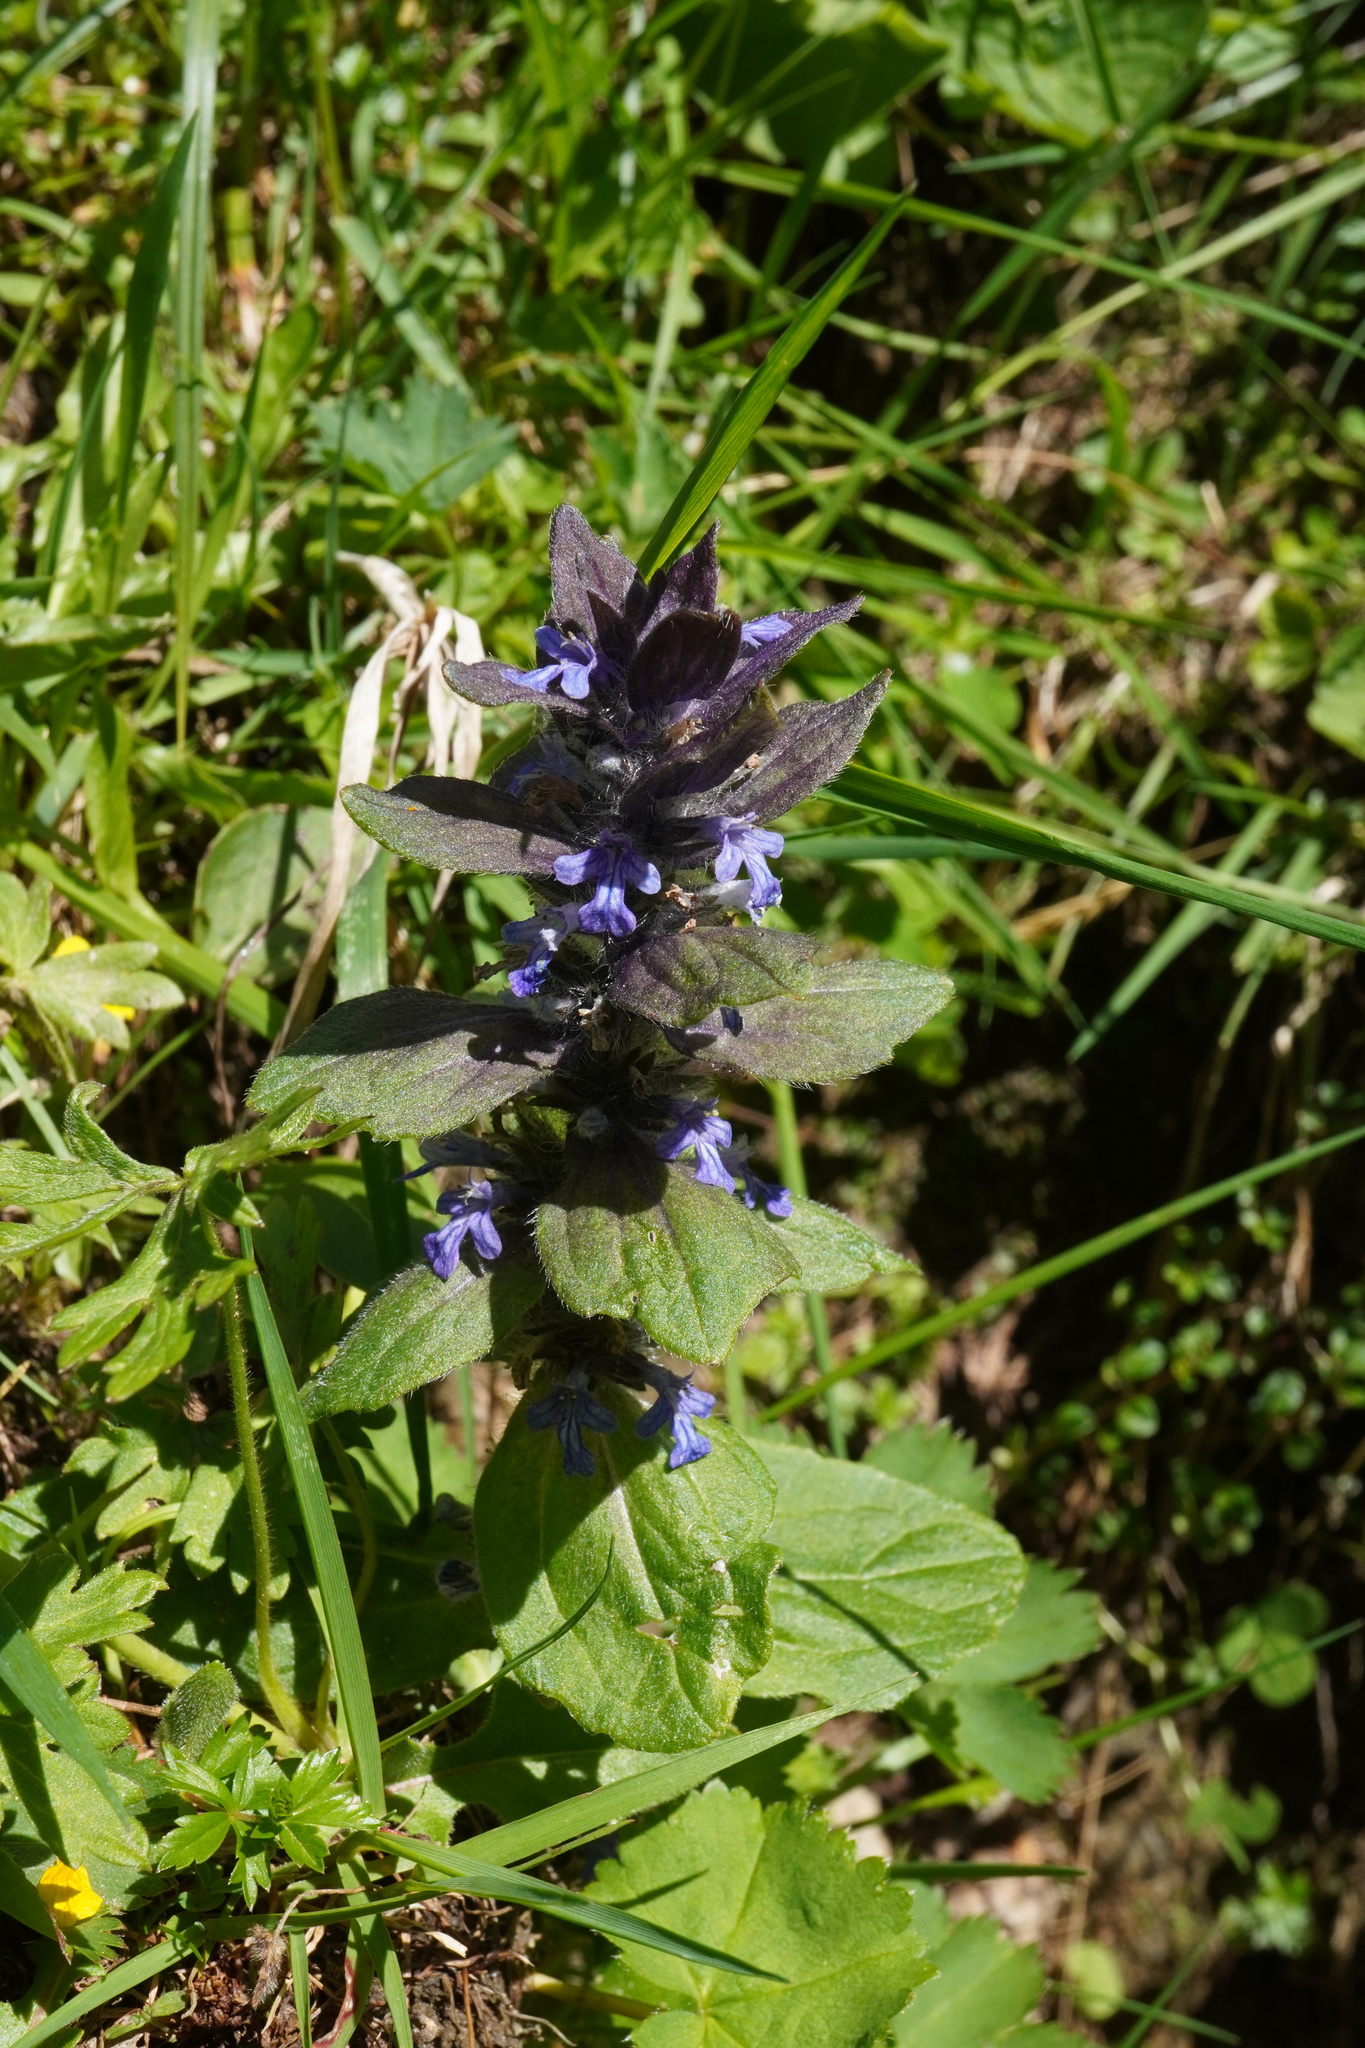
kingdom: Plantae
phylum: Tracheophyta
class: Magnoliopsida
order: Lamiales
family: Lamiaceae
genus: Ajuga
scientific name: Ajuga pyramidalis
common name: Pyramid bugle
